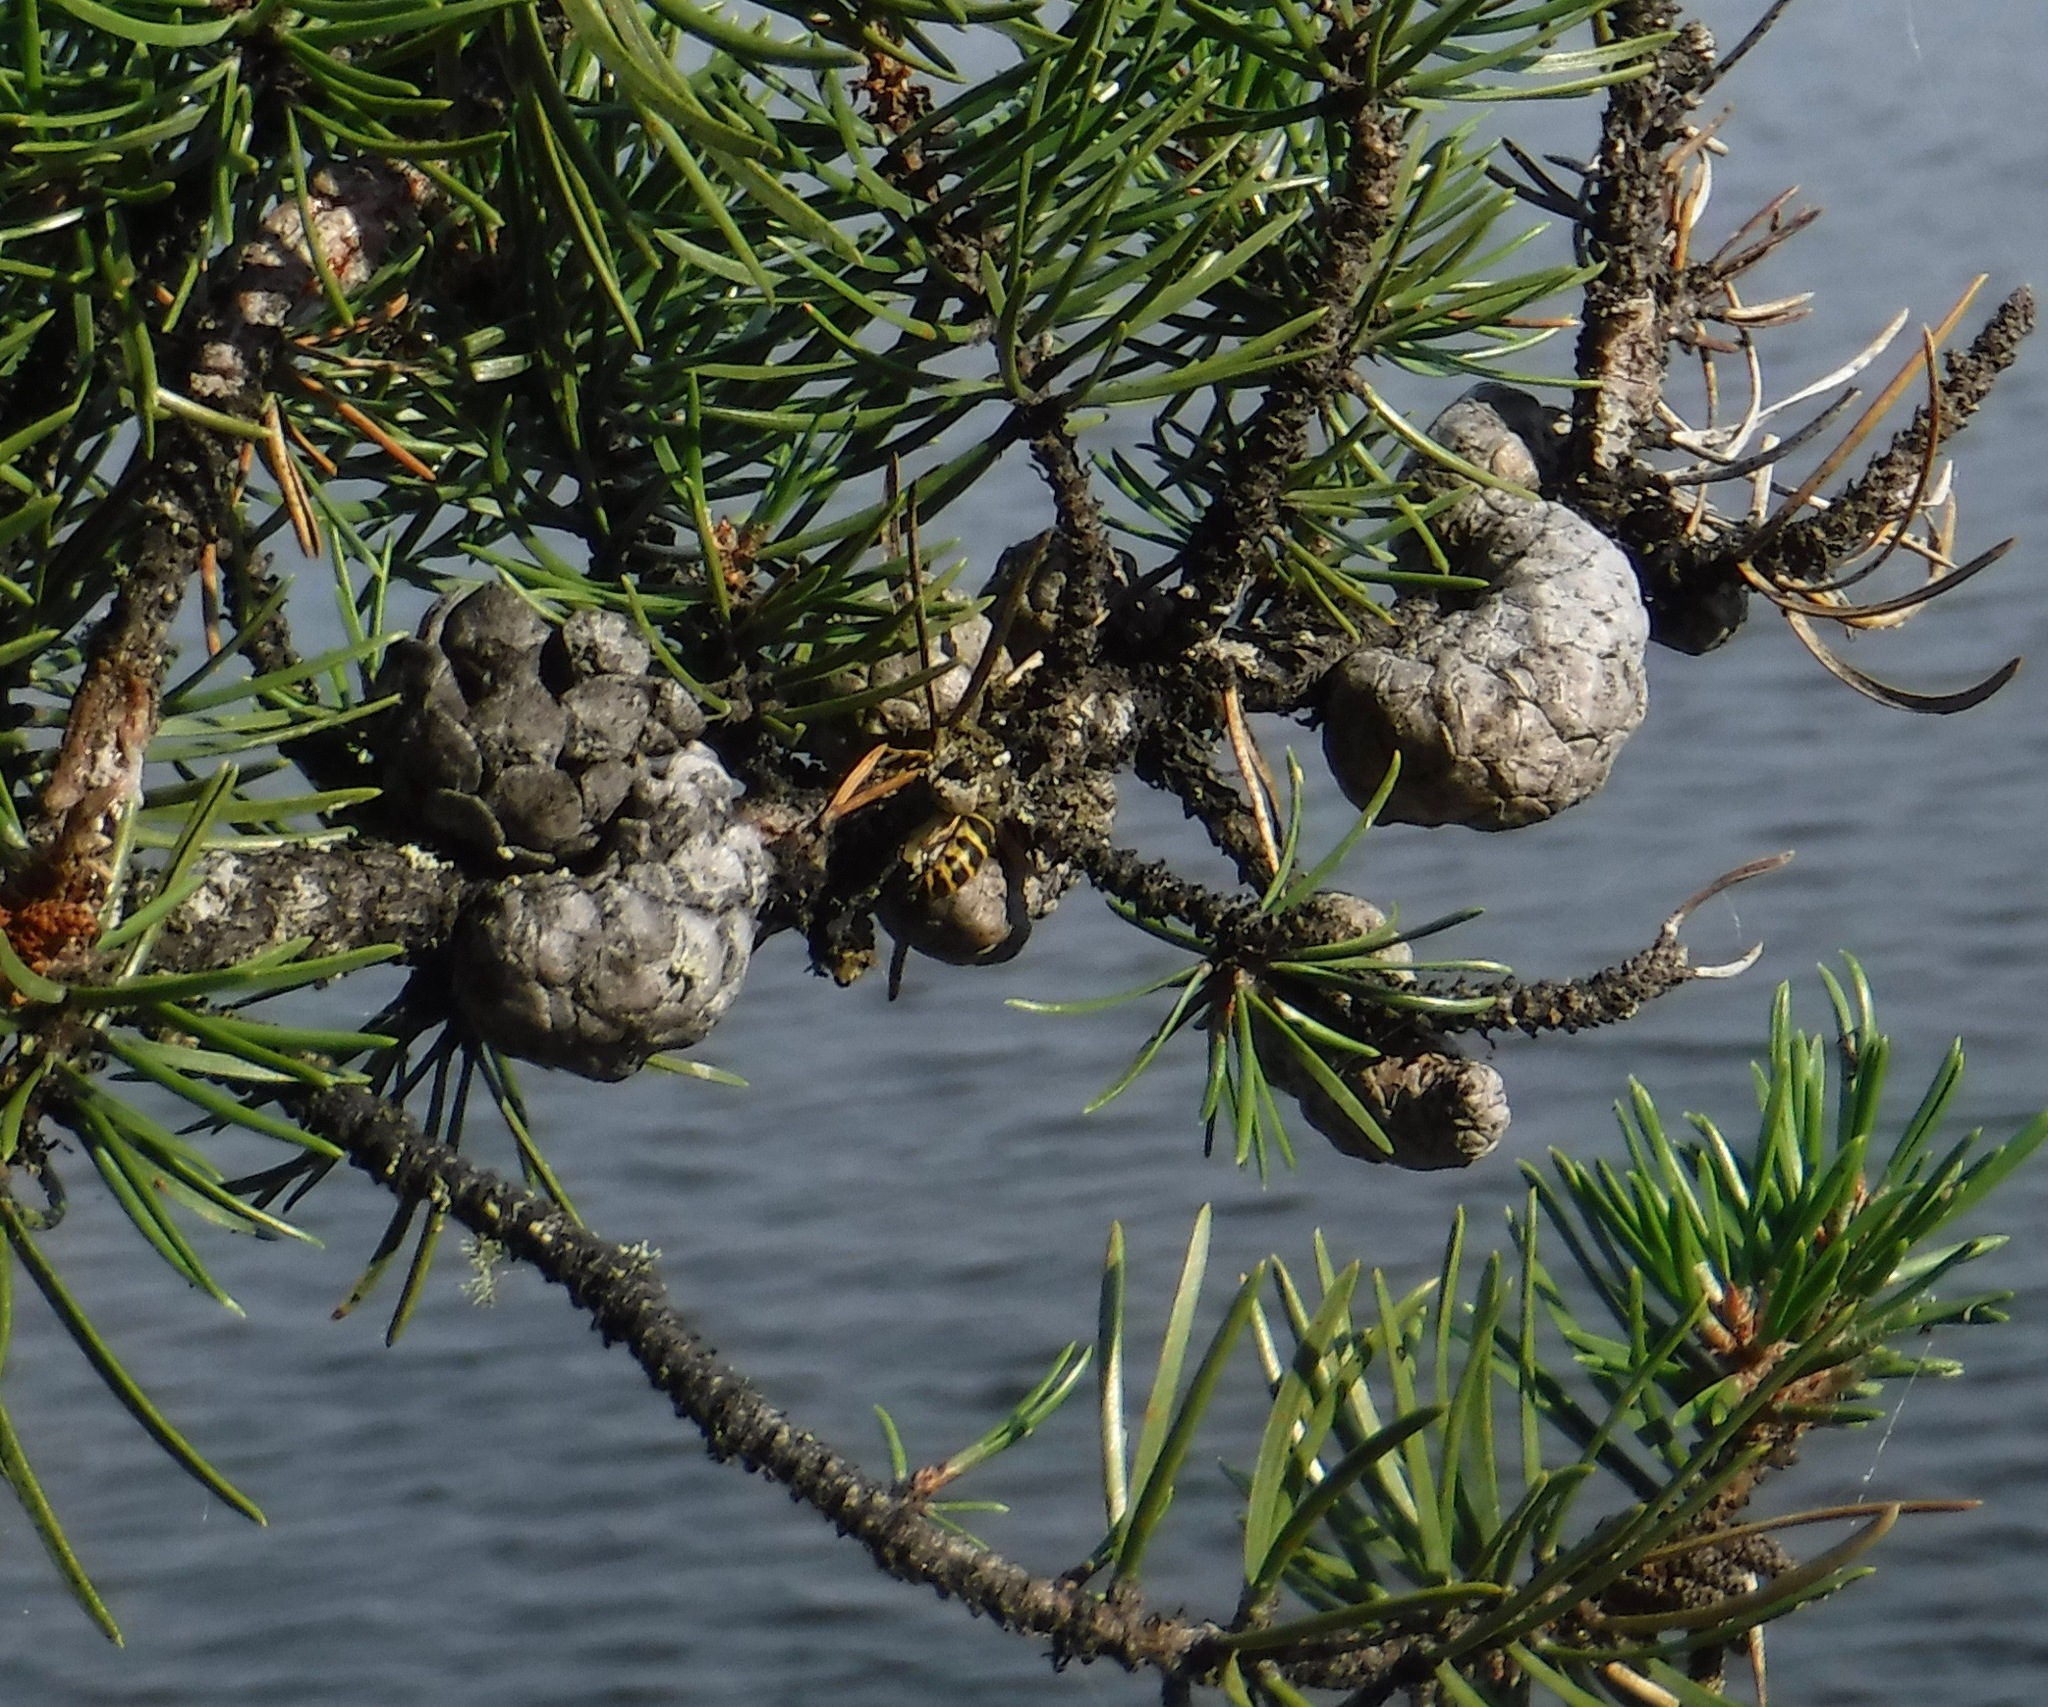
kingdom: Animalia
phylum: Arthropoda
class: Insecta
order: Hymenoptera
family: Vespidae
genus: Vespula
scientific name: Vespula acadica
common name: Forest yellowjacket
